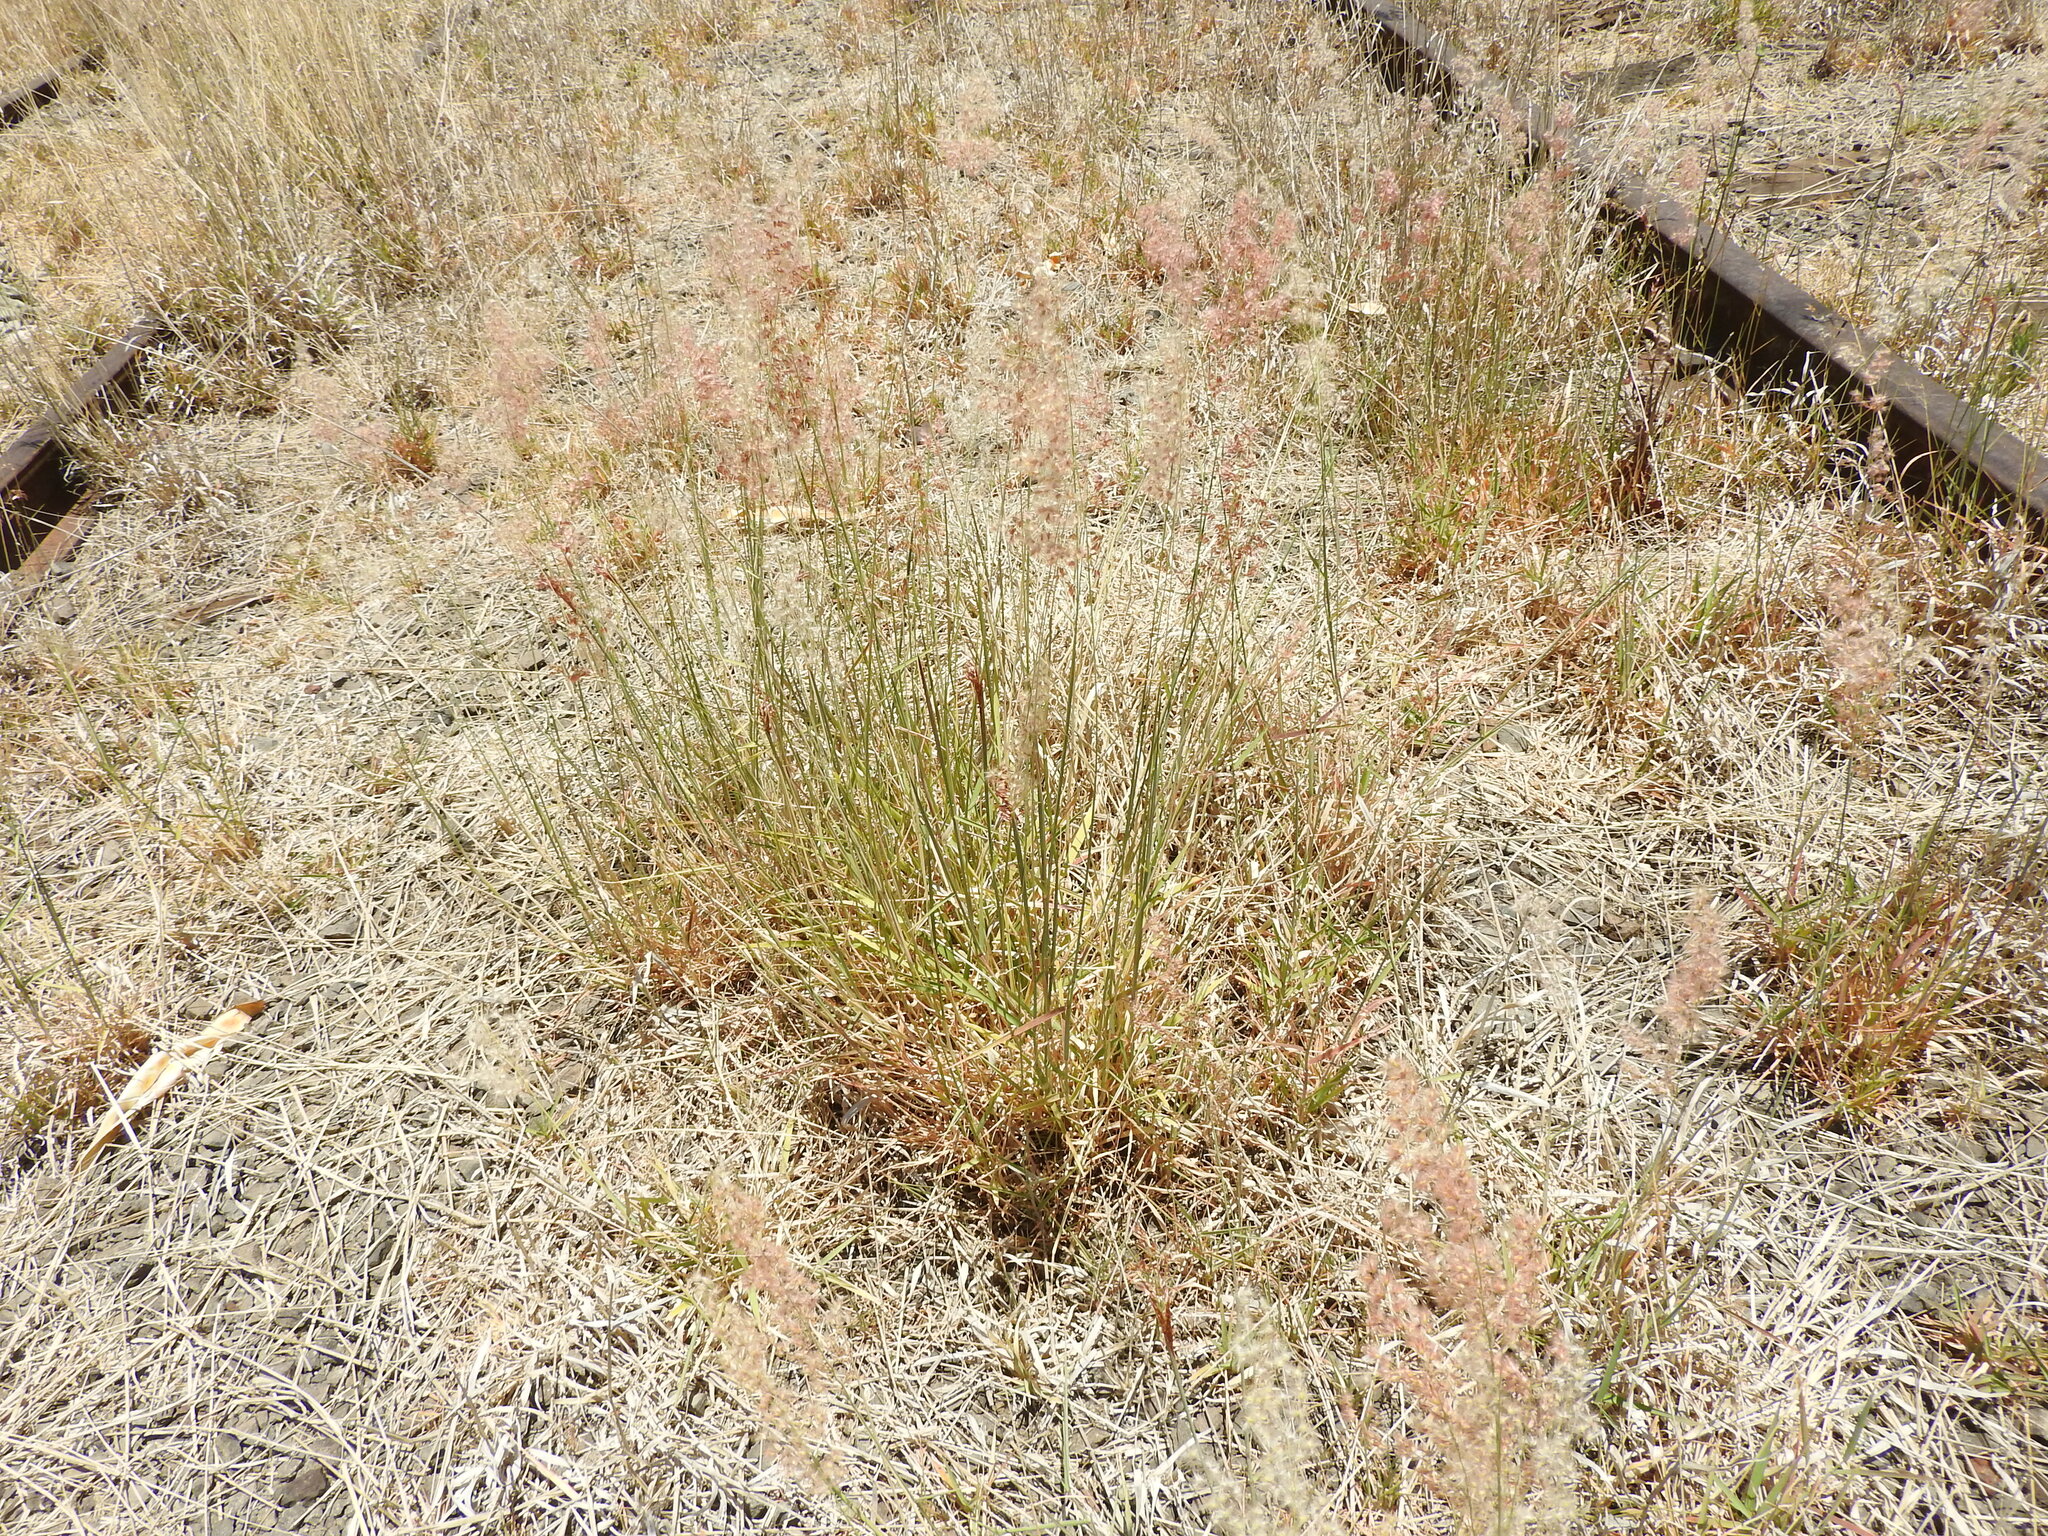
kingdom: Plantae
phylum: Tracheophyta
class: Liliopsida
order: Poales
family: Poaceae
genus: Melinis
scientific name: Melinis repens
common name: Rose natal grass
